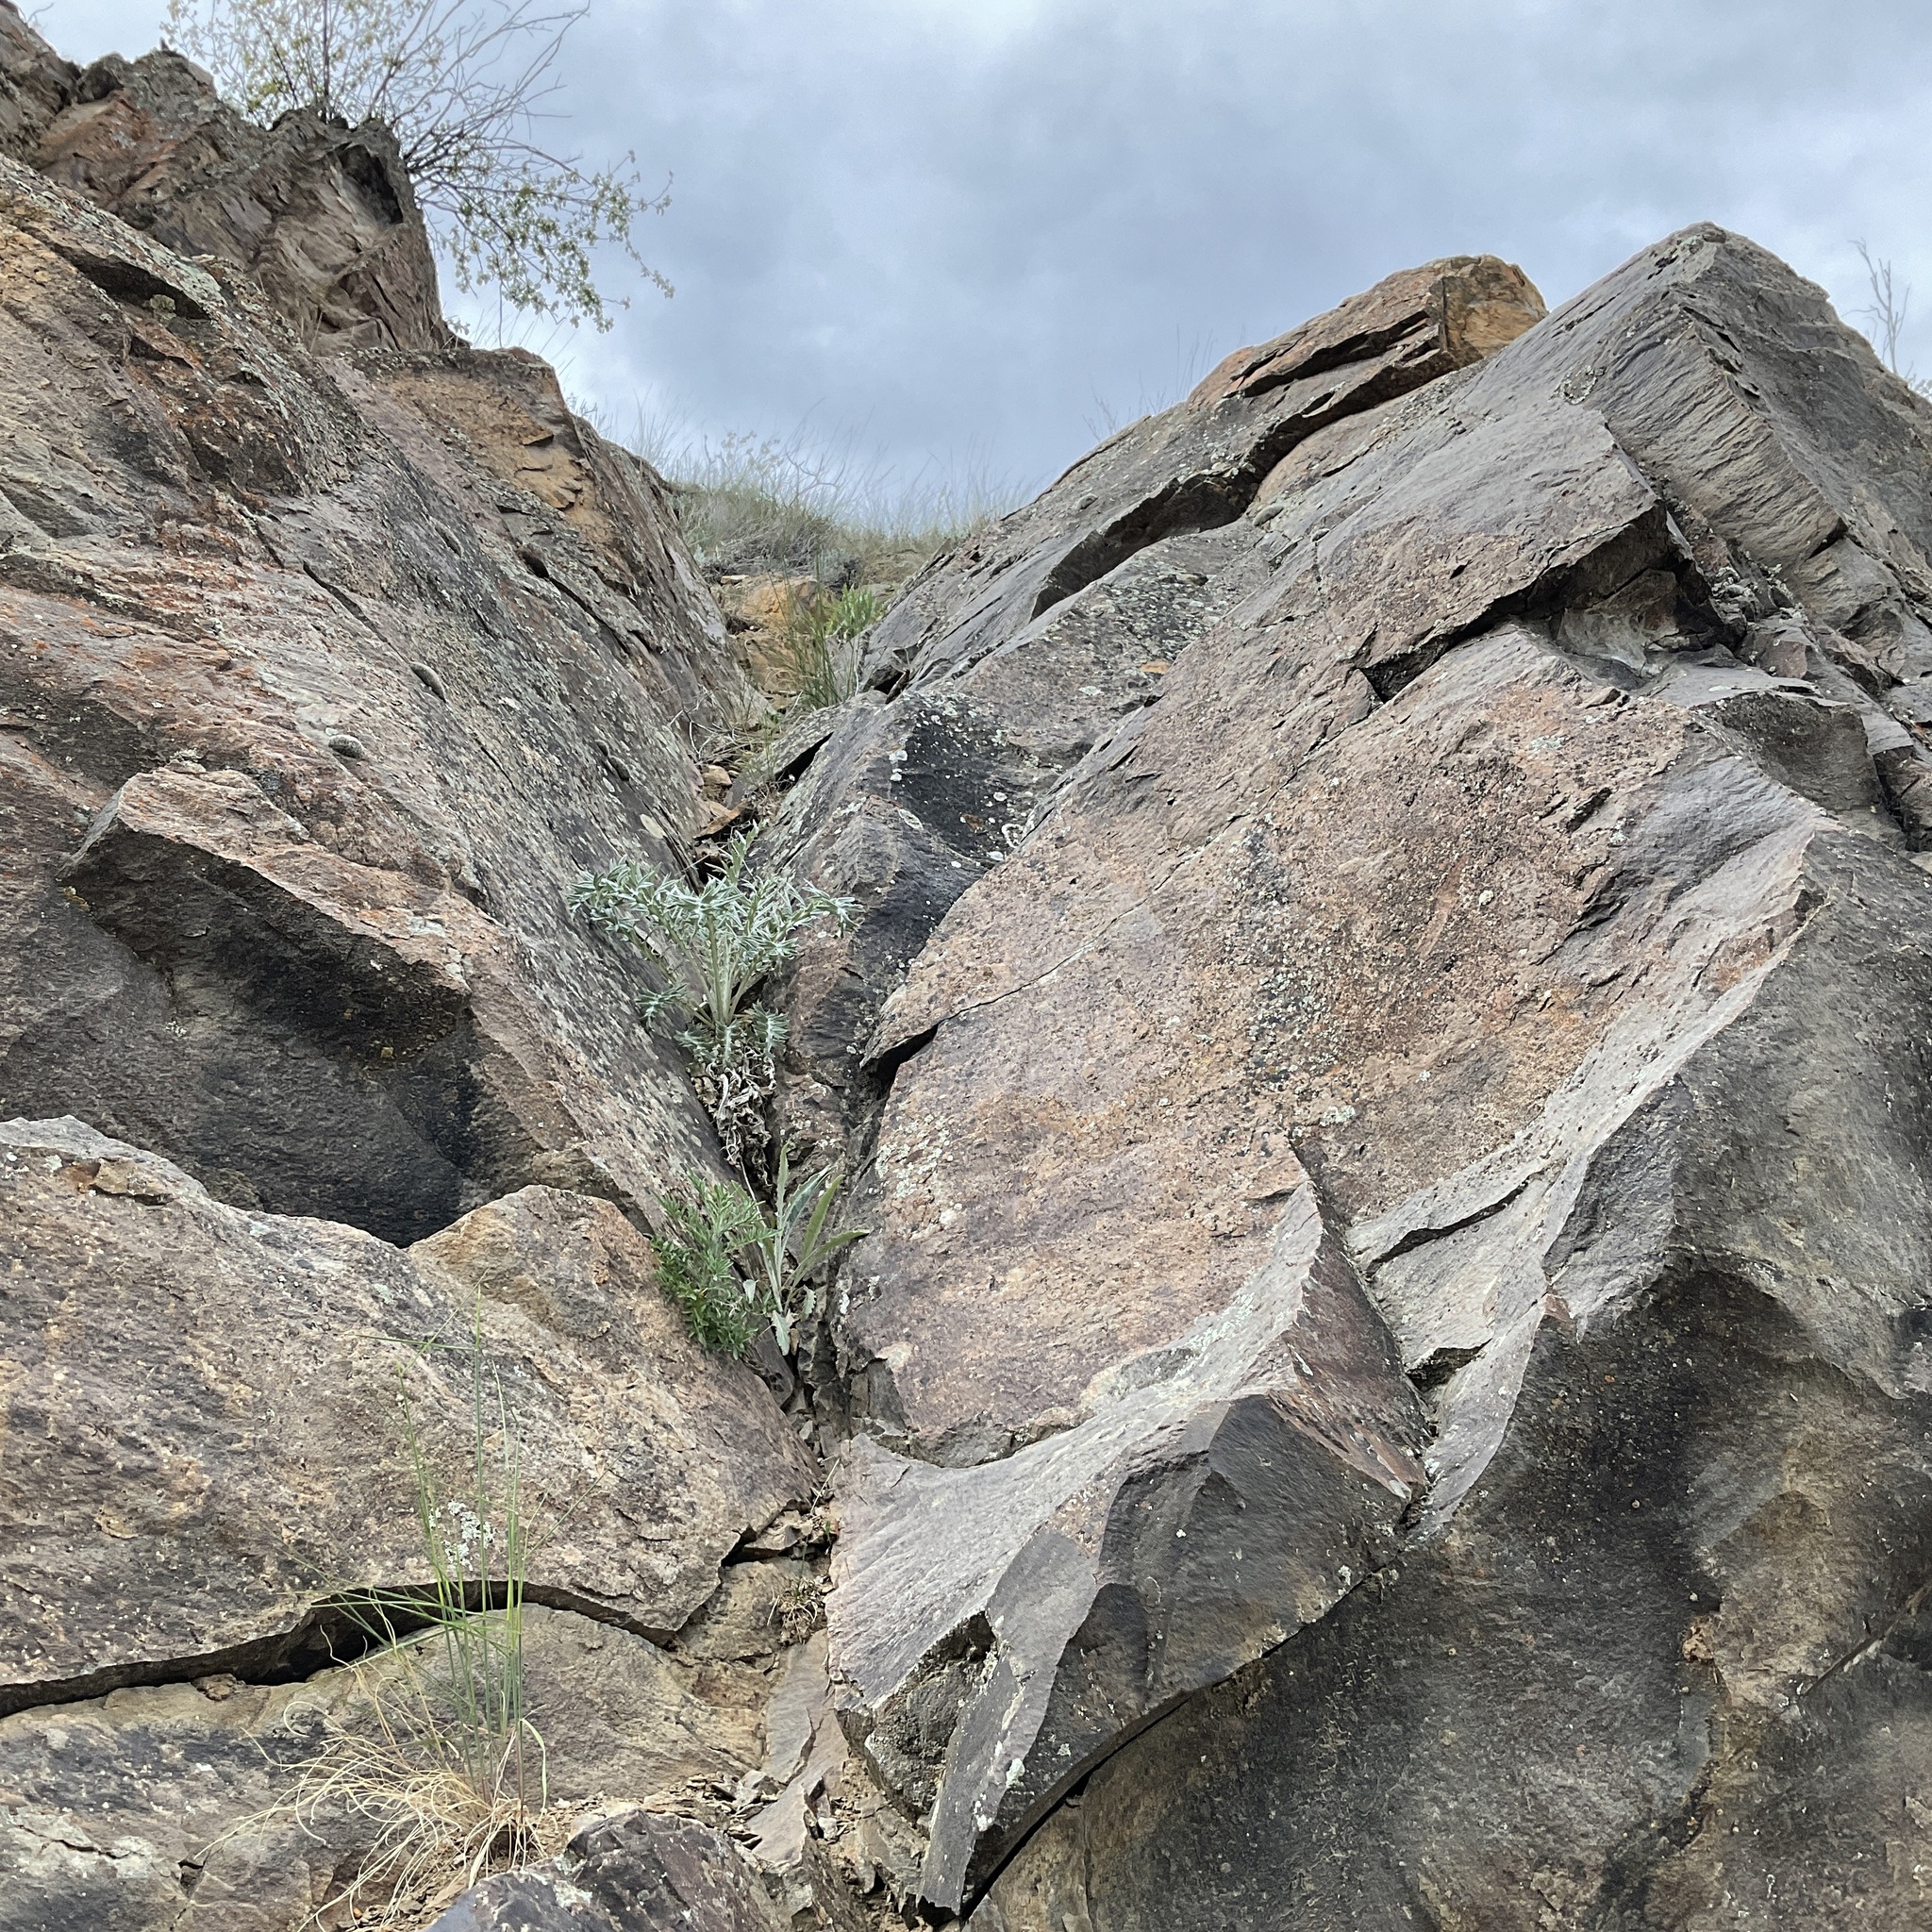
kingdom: Plantae
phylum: Tracheophyta
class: Magnoliopsida
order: Asterales
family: Asteraceae
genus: Cirsium
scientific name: Cirsium undulatum
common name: Pasture thistle
